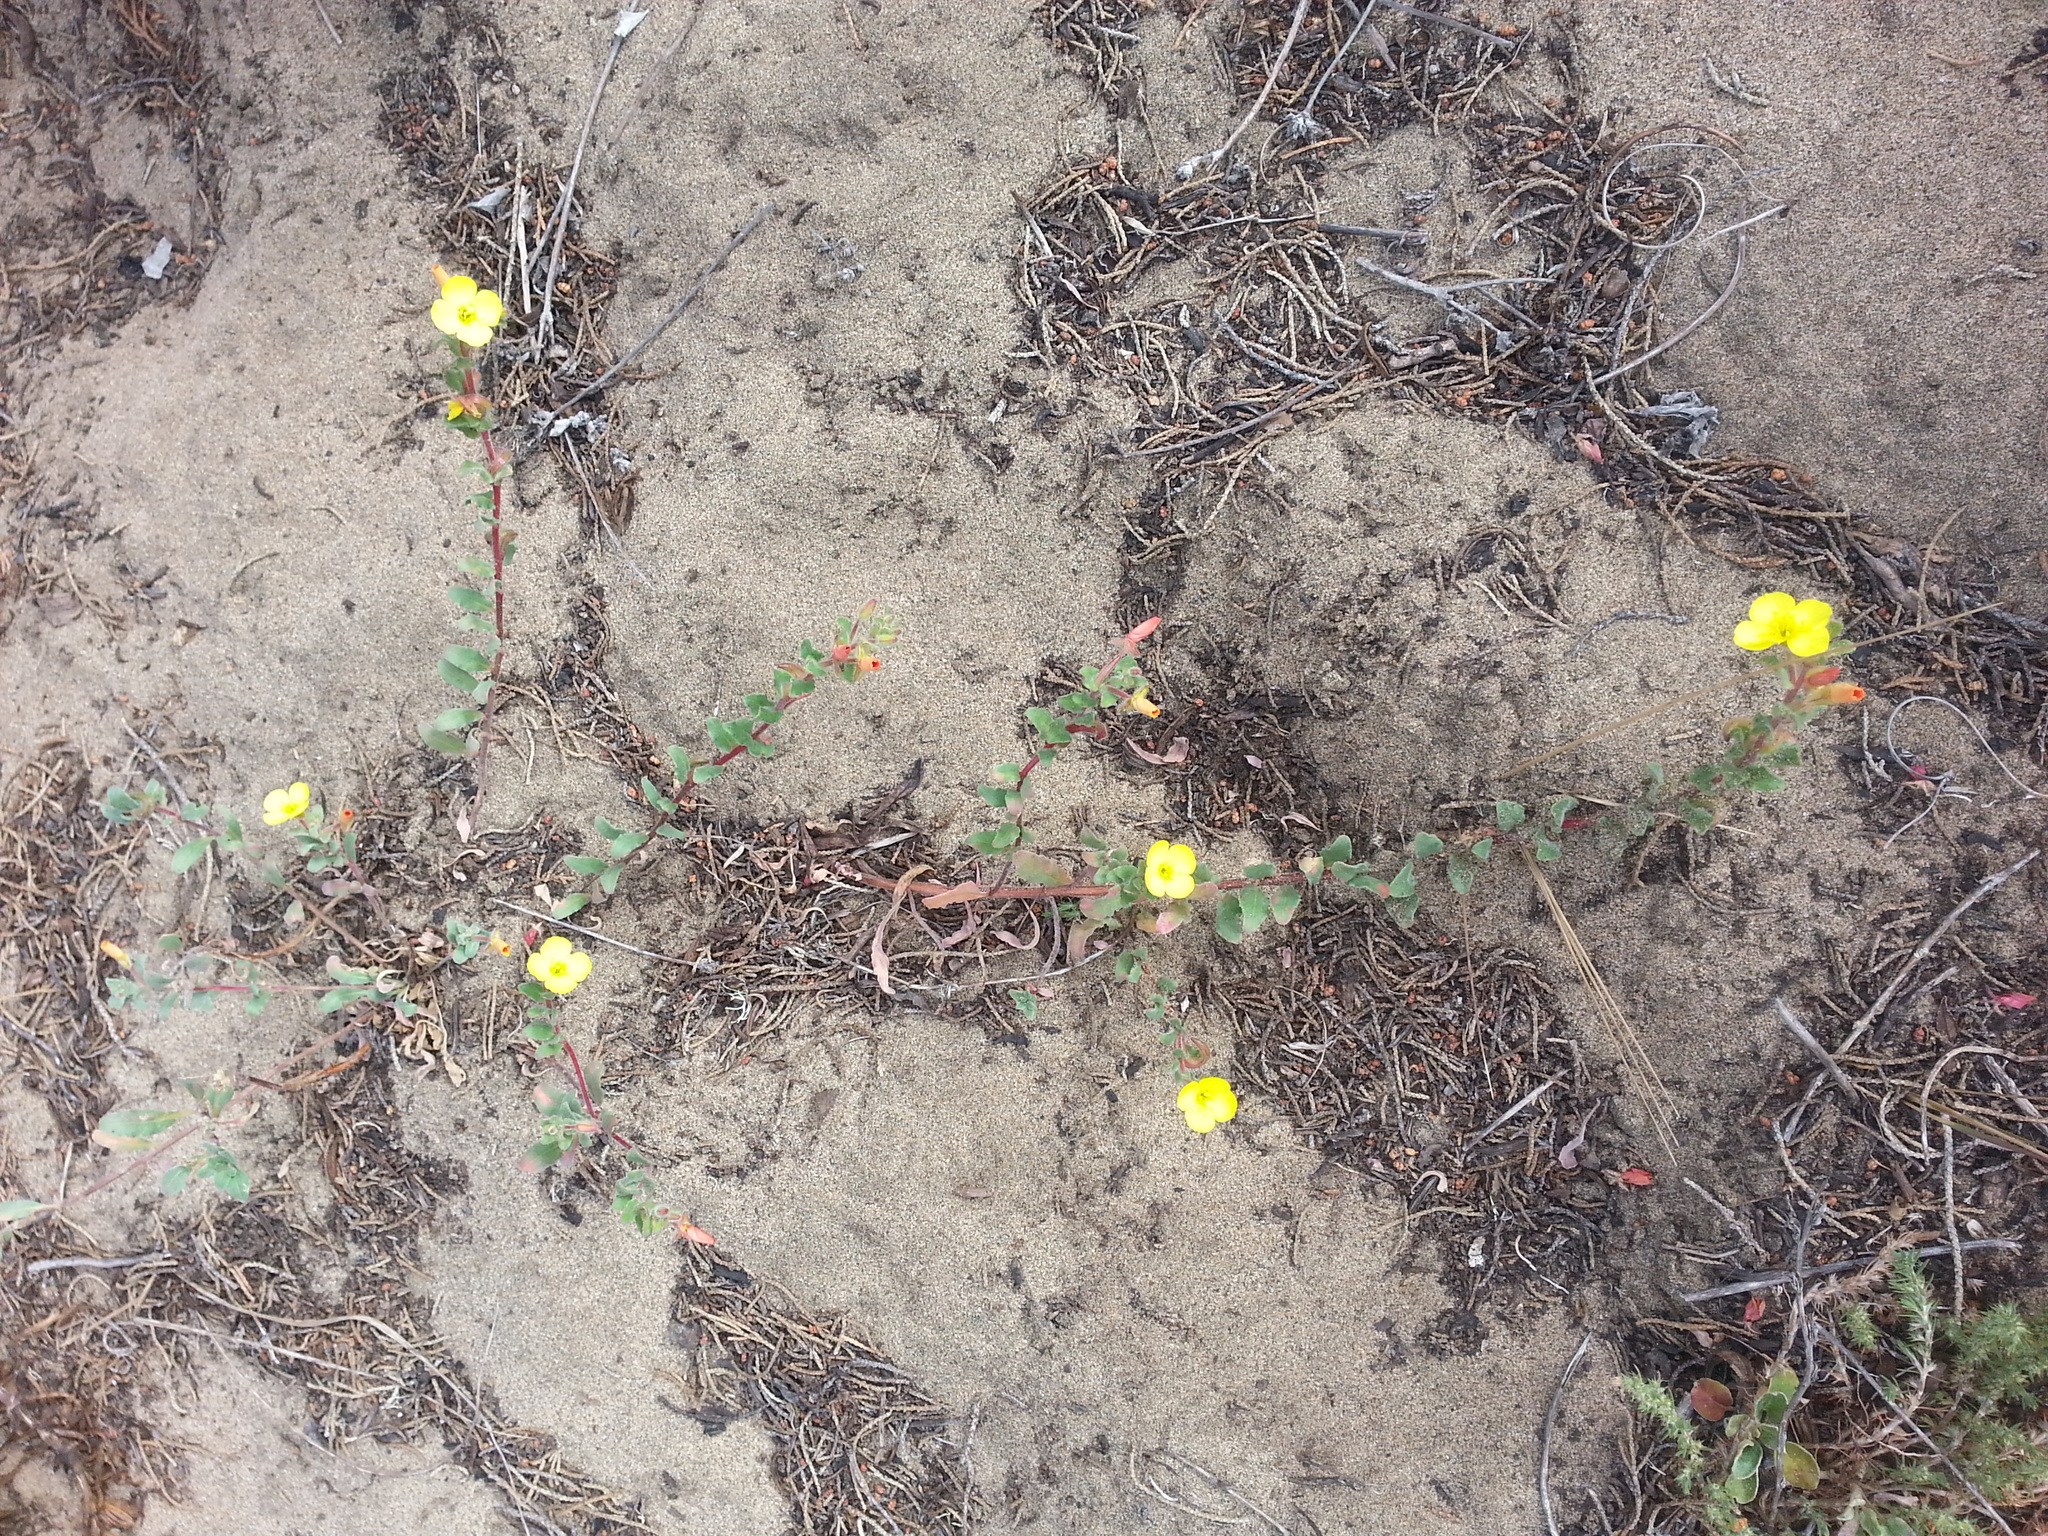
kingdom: Plantae
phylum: Tracheophyta
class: Magnoliopsida
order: Myrtales
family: Onagraceae
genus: Camissoniopsis
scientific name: Camissoniopsis cheiranthifolia
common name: Beach suncup
